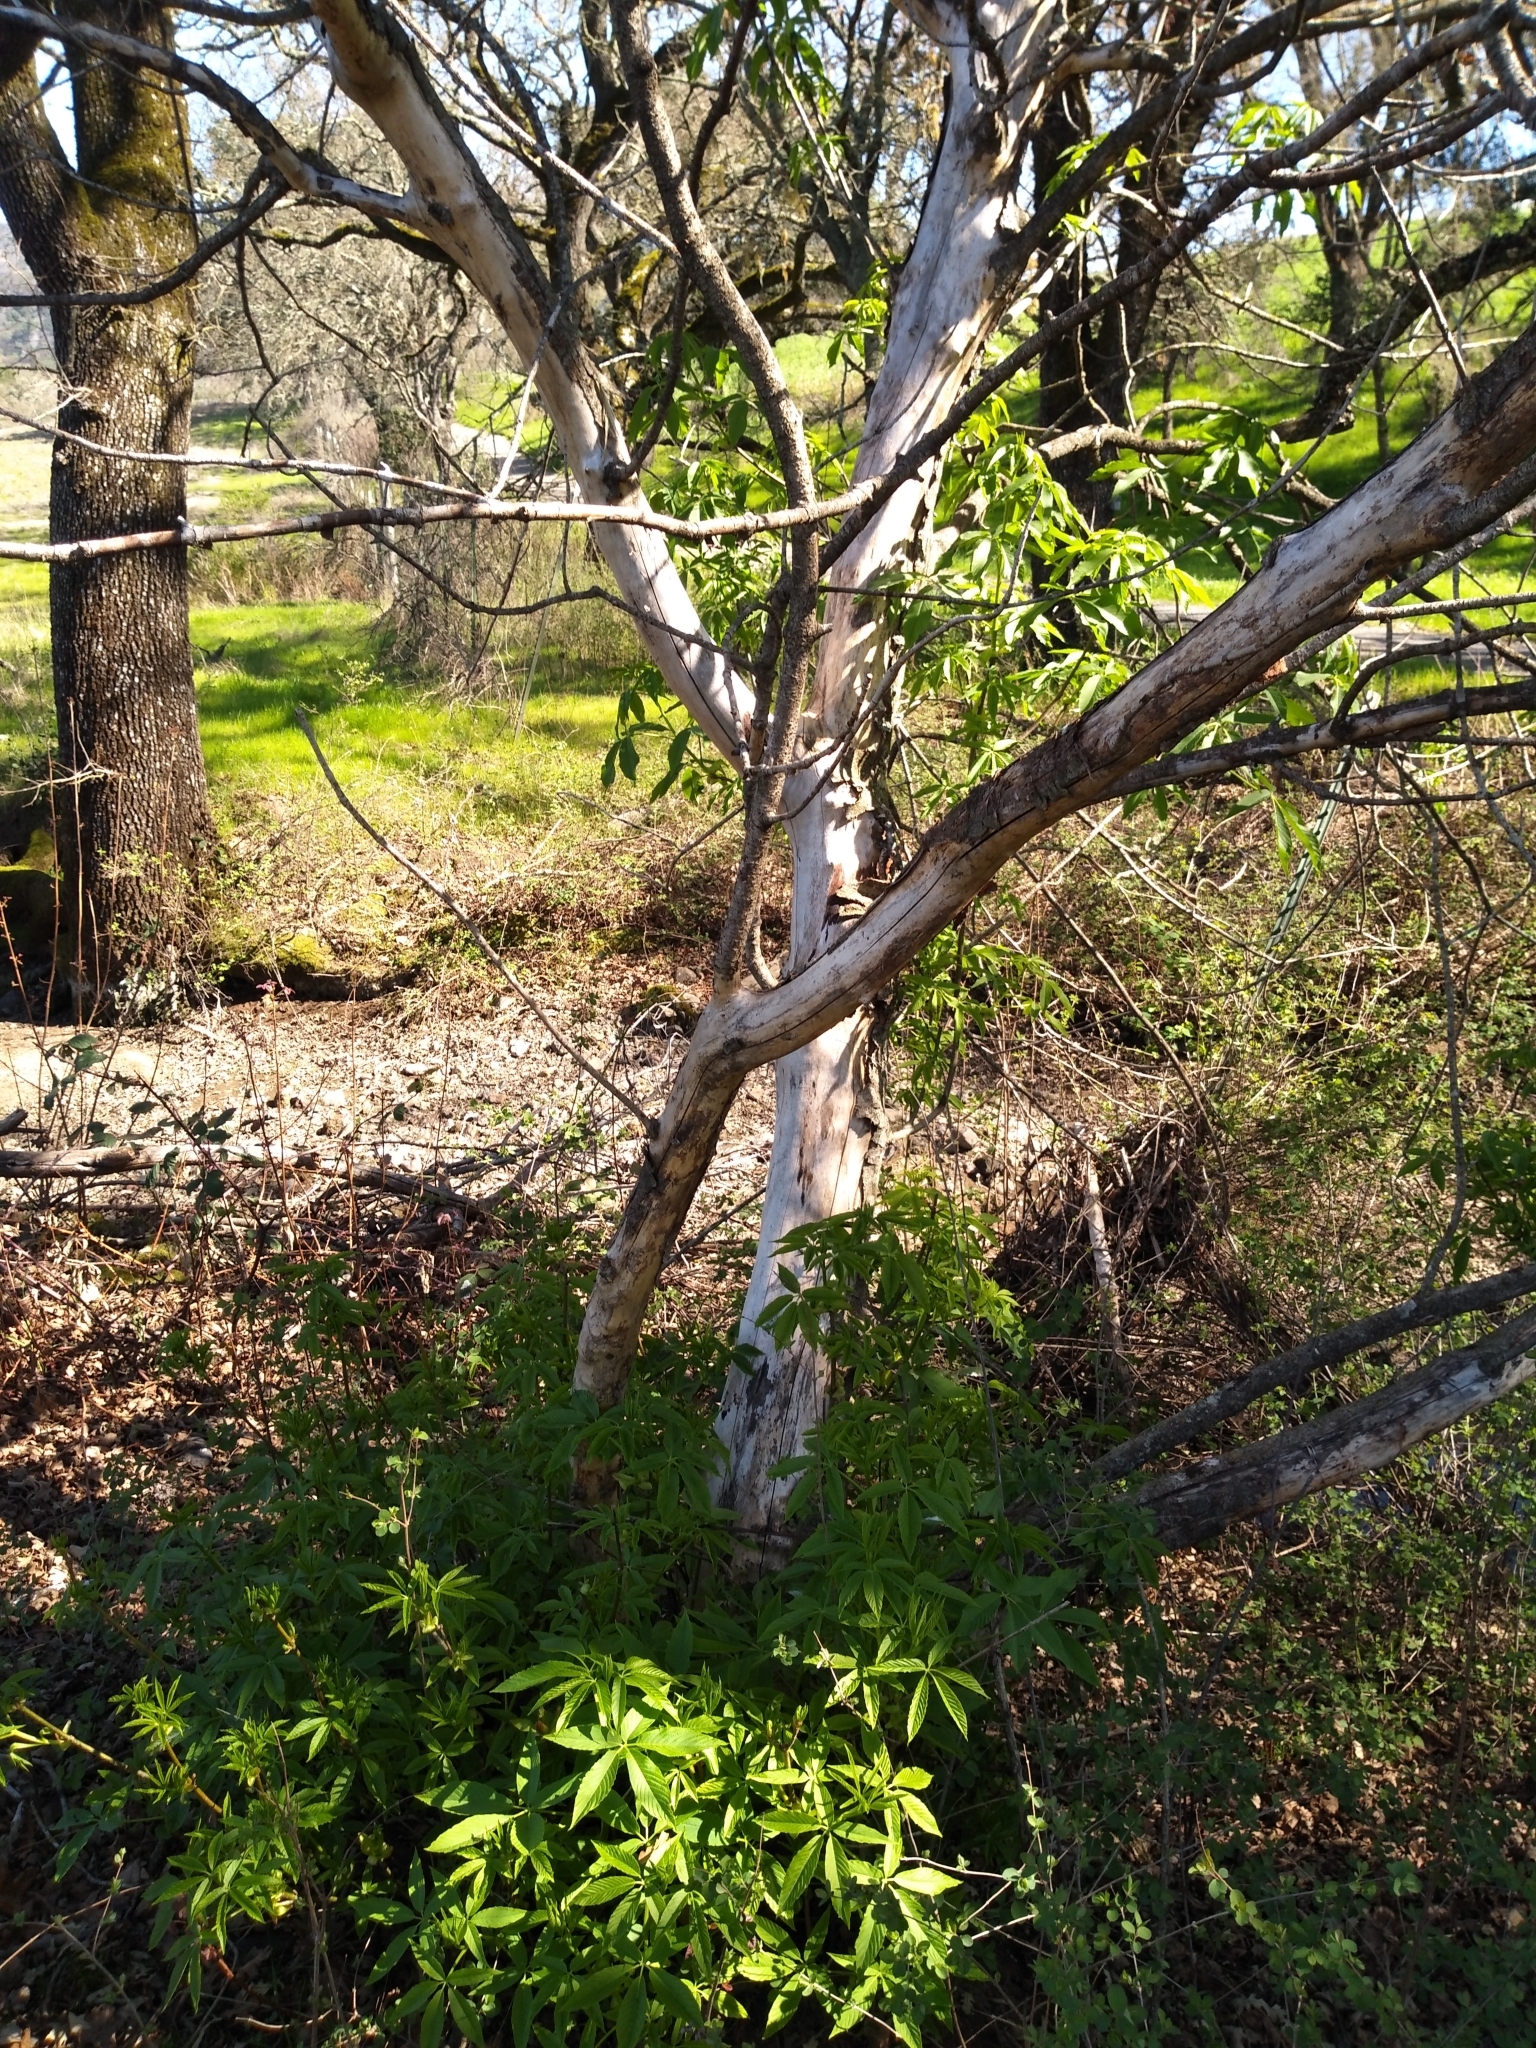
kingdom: Plantae
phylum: Tracheophyta
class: Magnoliopsida
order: Sapindales
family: Sapindaceae
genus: Aesculus
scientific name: Aesculus californica
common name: California buckeye
